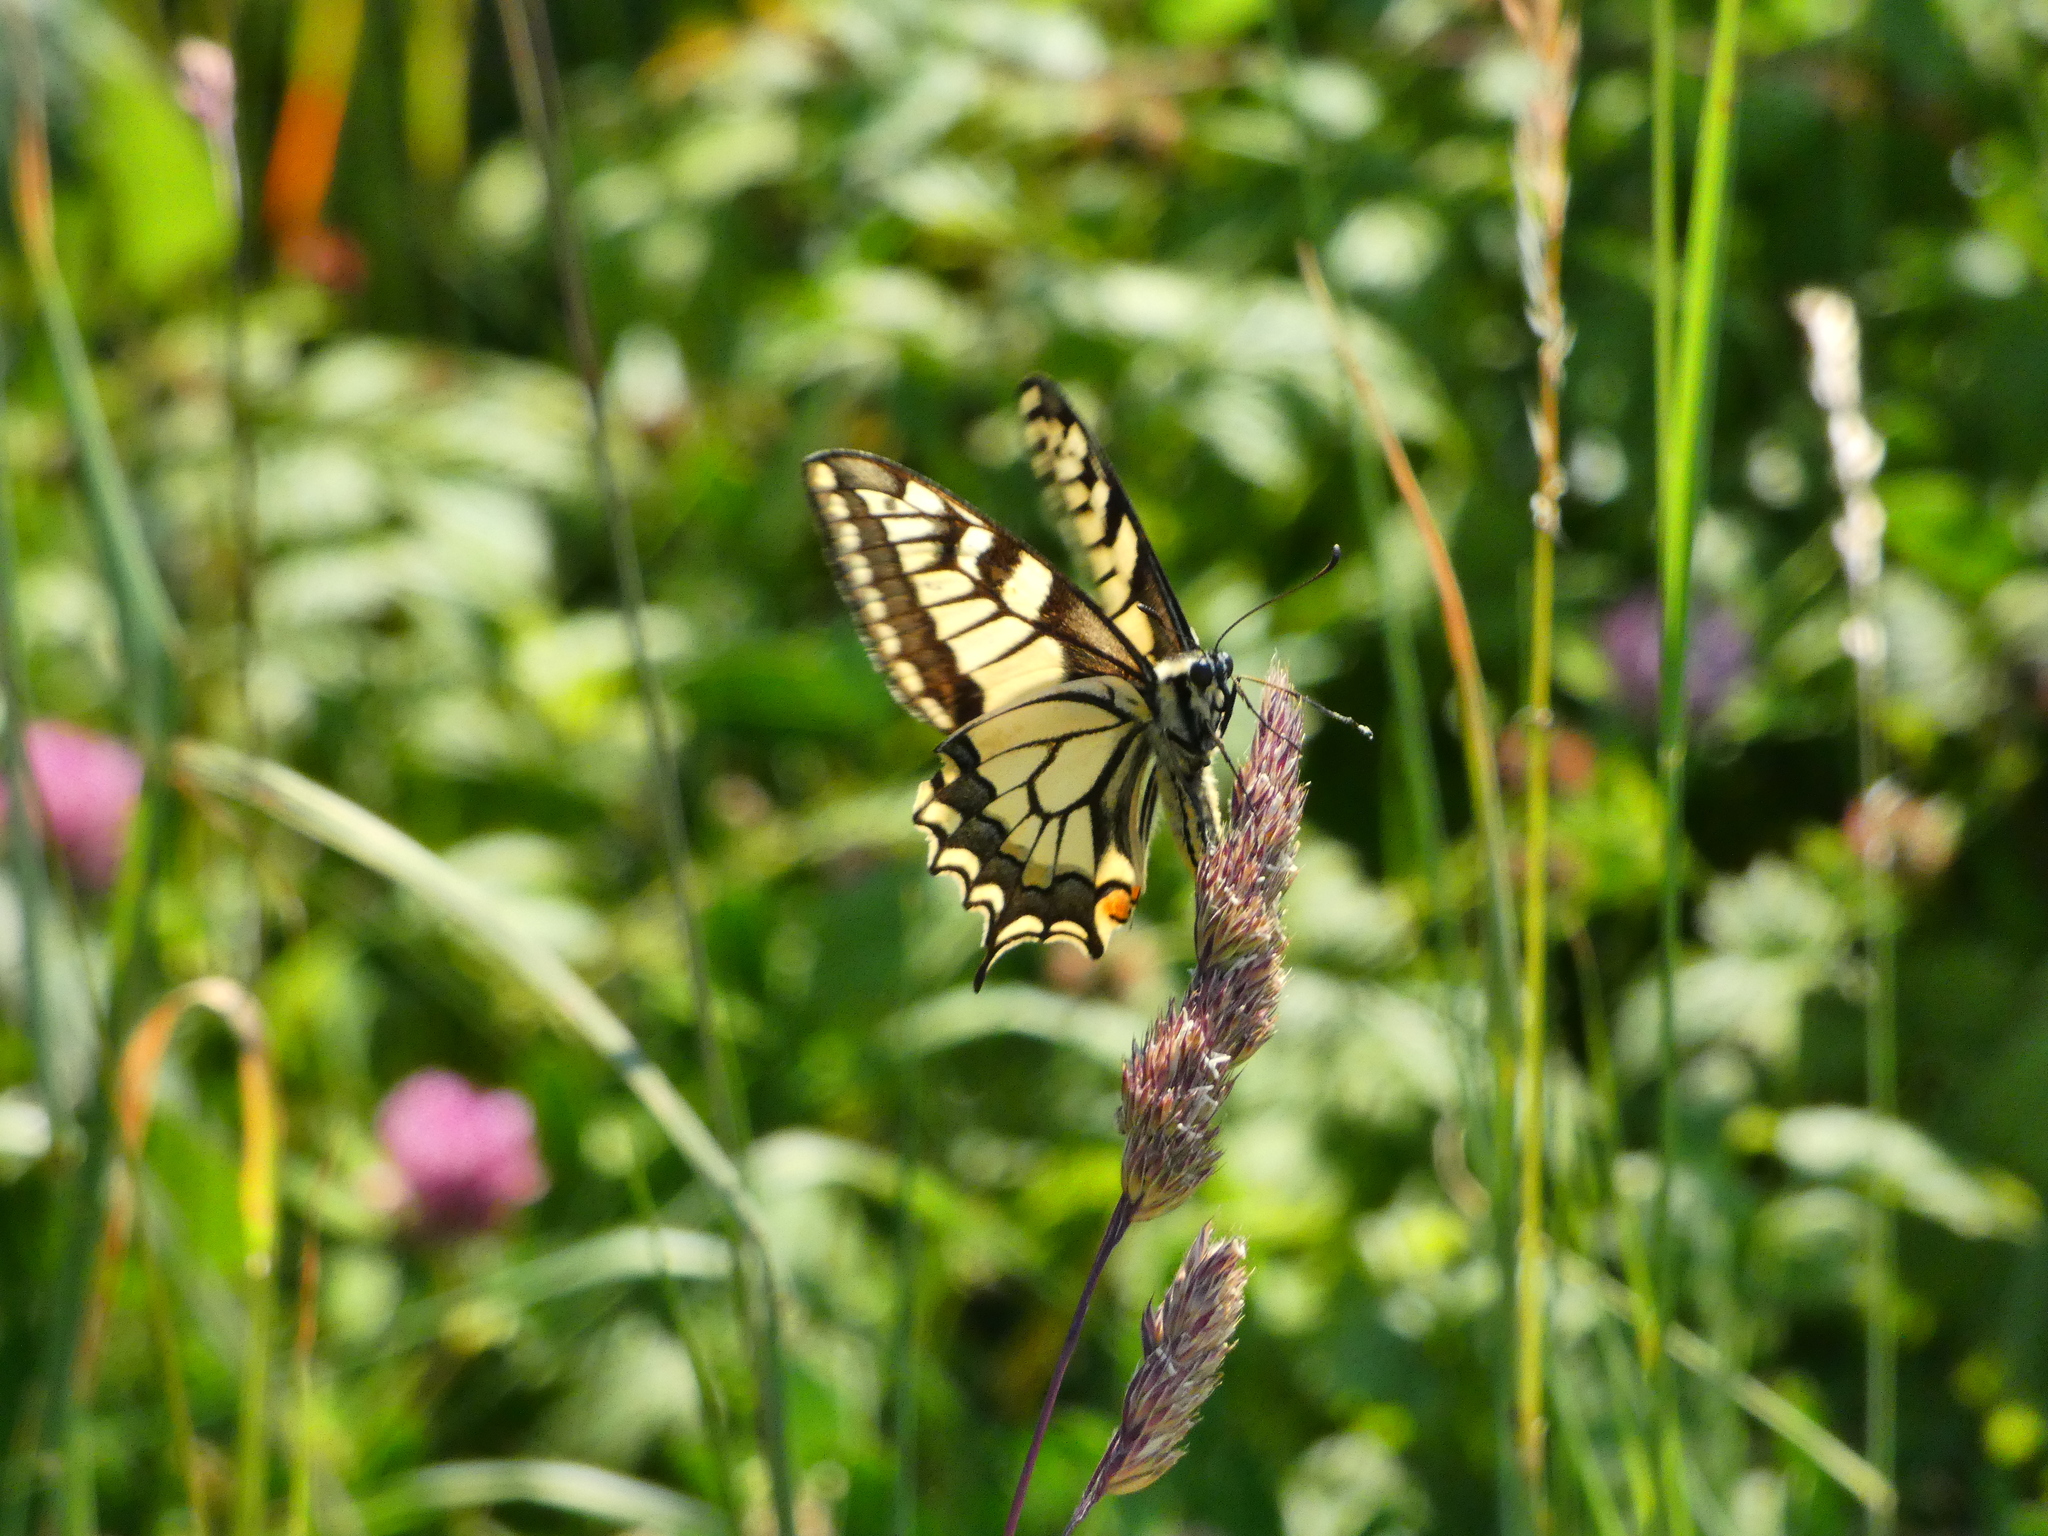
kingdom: Animalia
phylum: Arthropoda
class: Insecta
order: Lepidoptera
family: Papilionidae
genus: Papilio
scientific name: Papilio machaon
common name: Swallowtail
